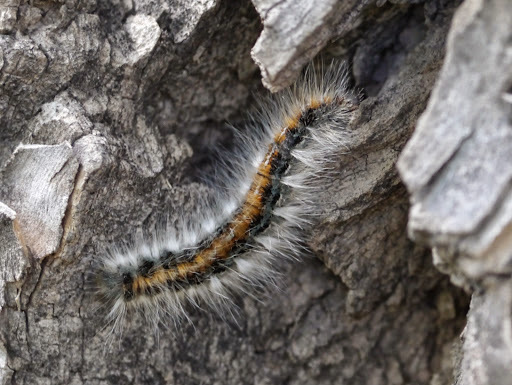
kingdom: Animalia
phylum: Arthropoda
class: Insecta
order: Lepidoptera
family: Lasiocampidae
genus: Malacosoma
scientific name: Malacosoma incurva
